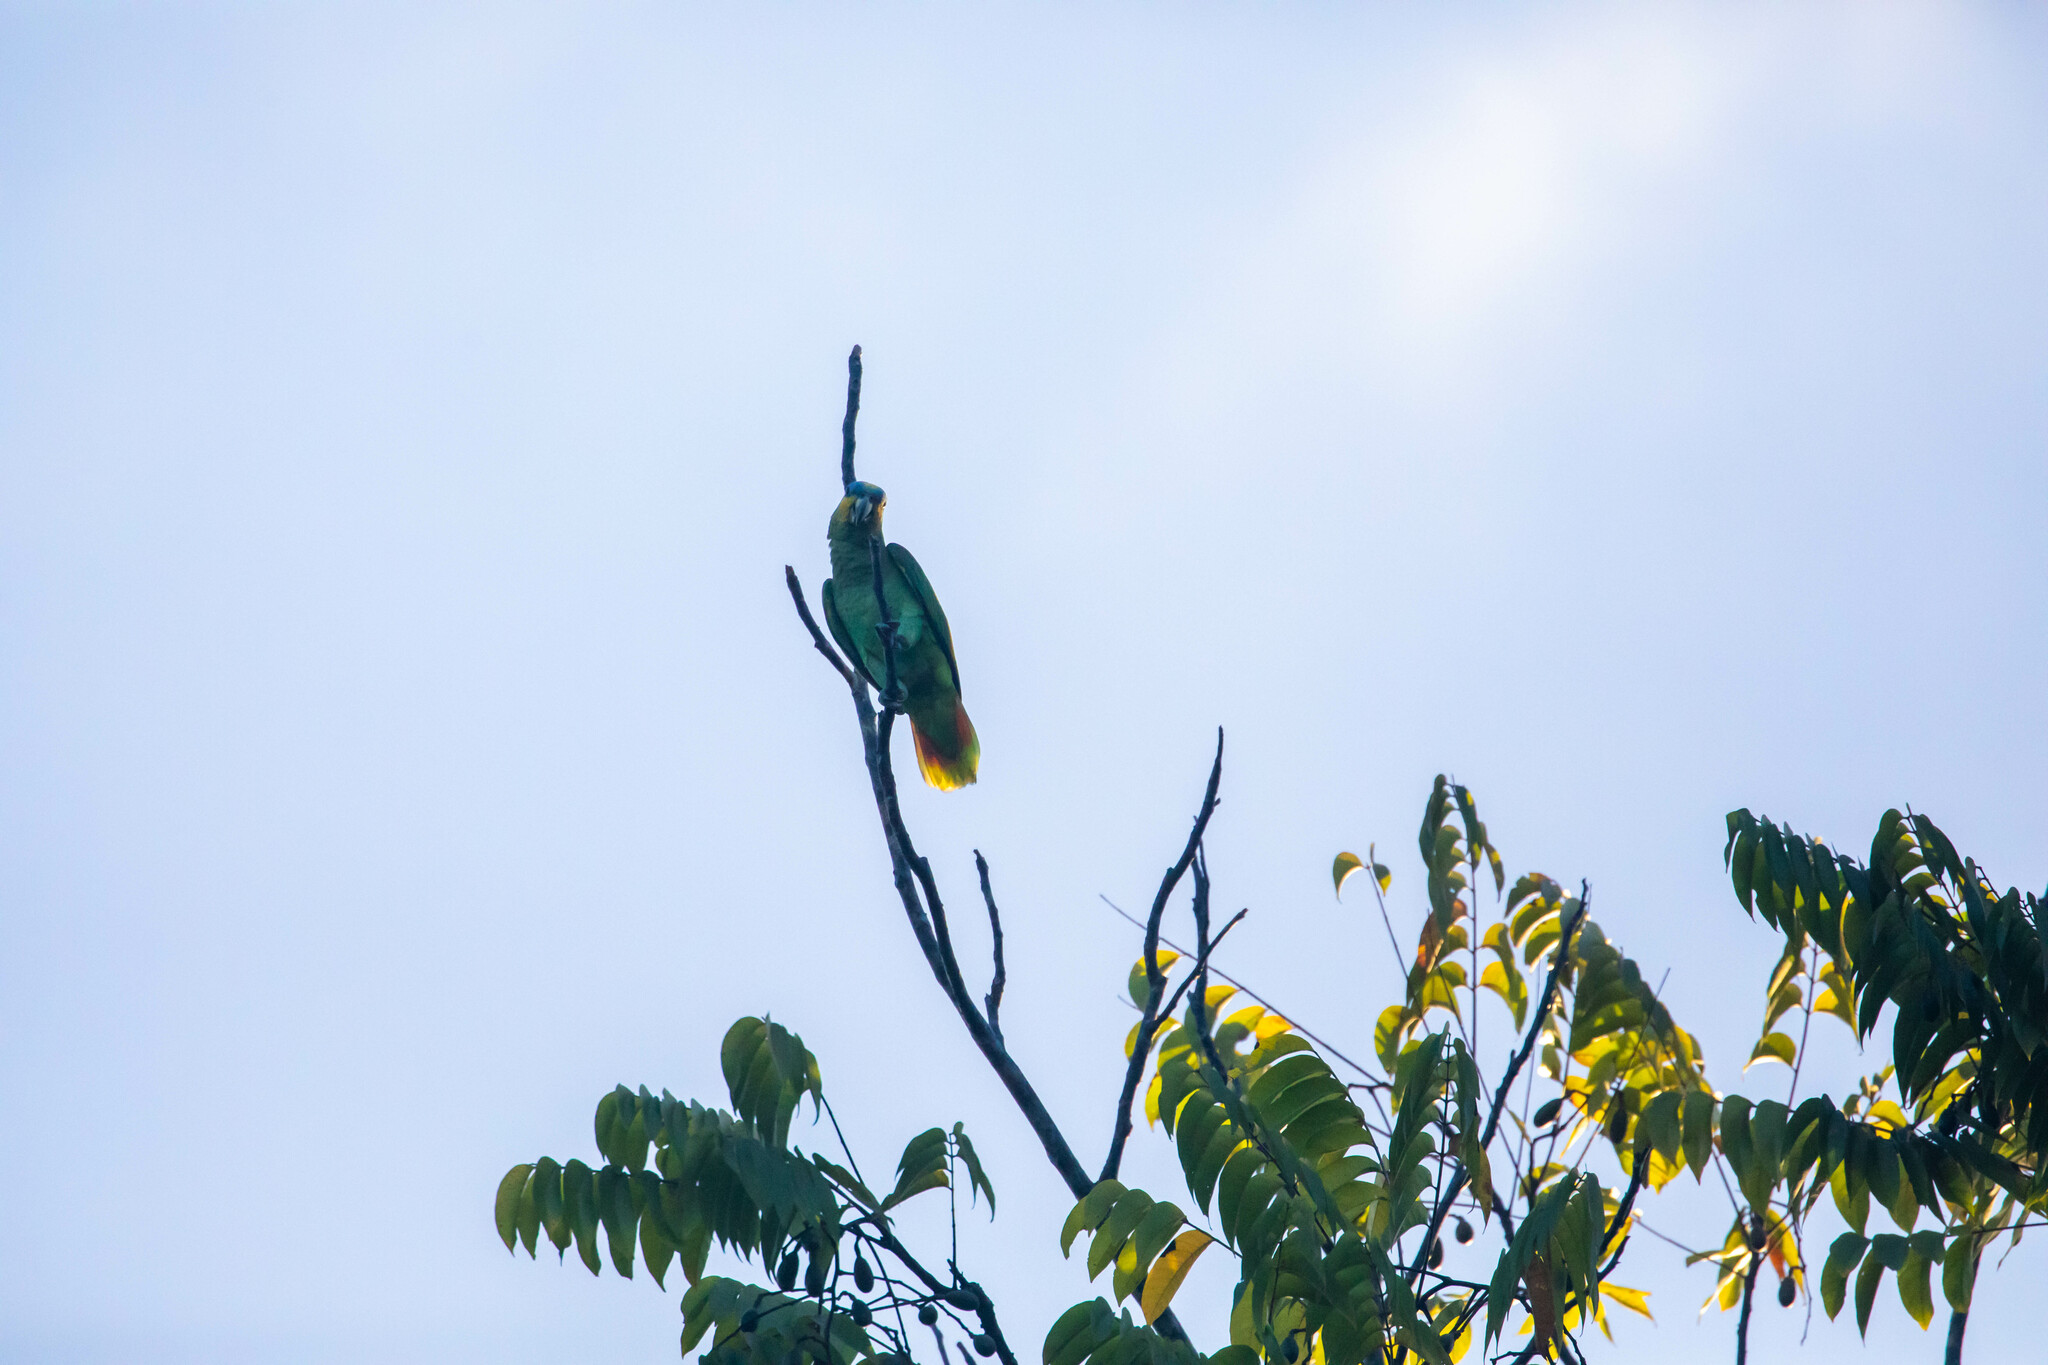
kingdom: Animalia
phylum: Chordata
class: Aves
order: Psittaciformes
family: Psittacidae
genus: Amazona
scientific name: Amazona amazonica
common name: Orange-winged amazon
